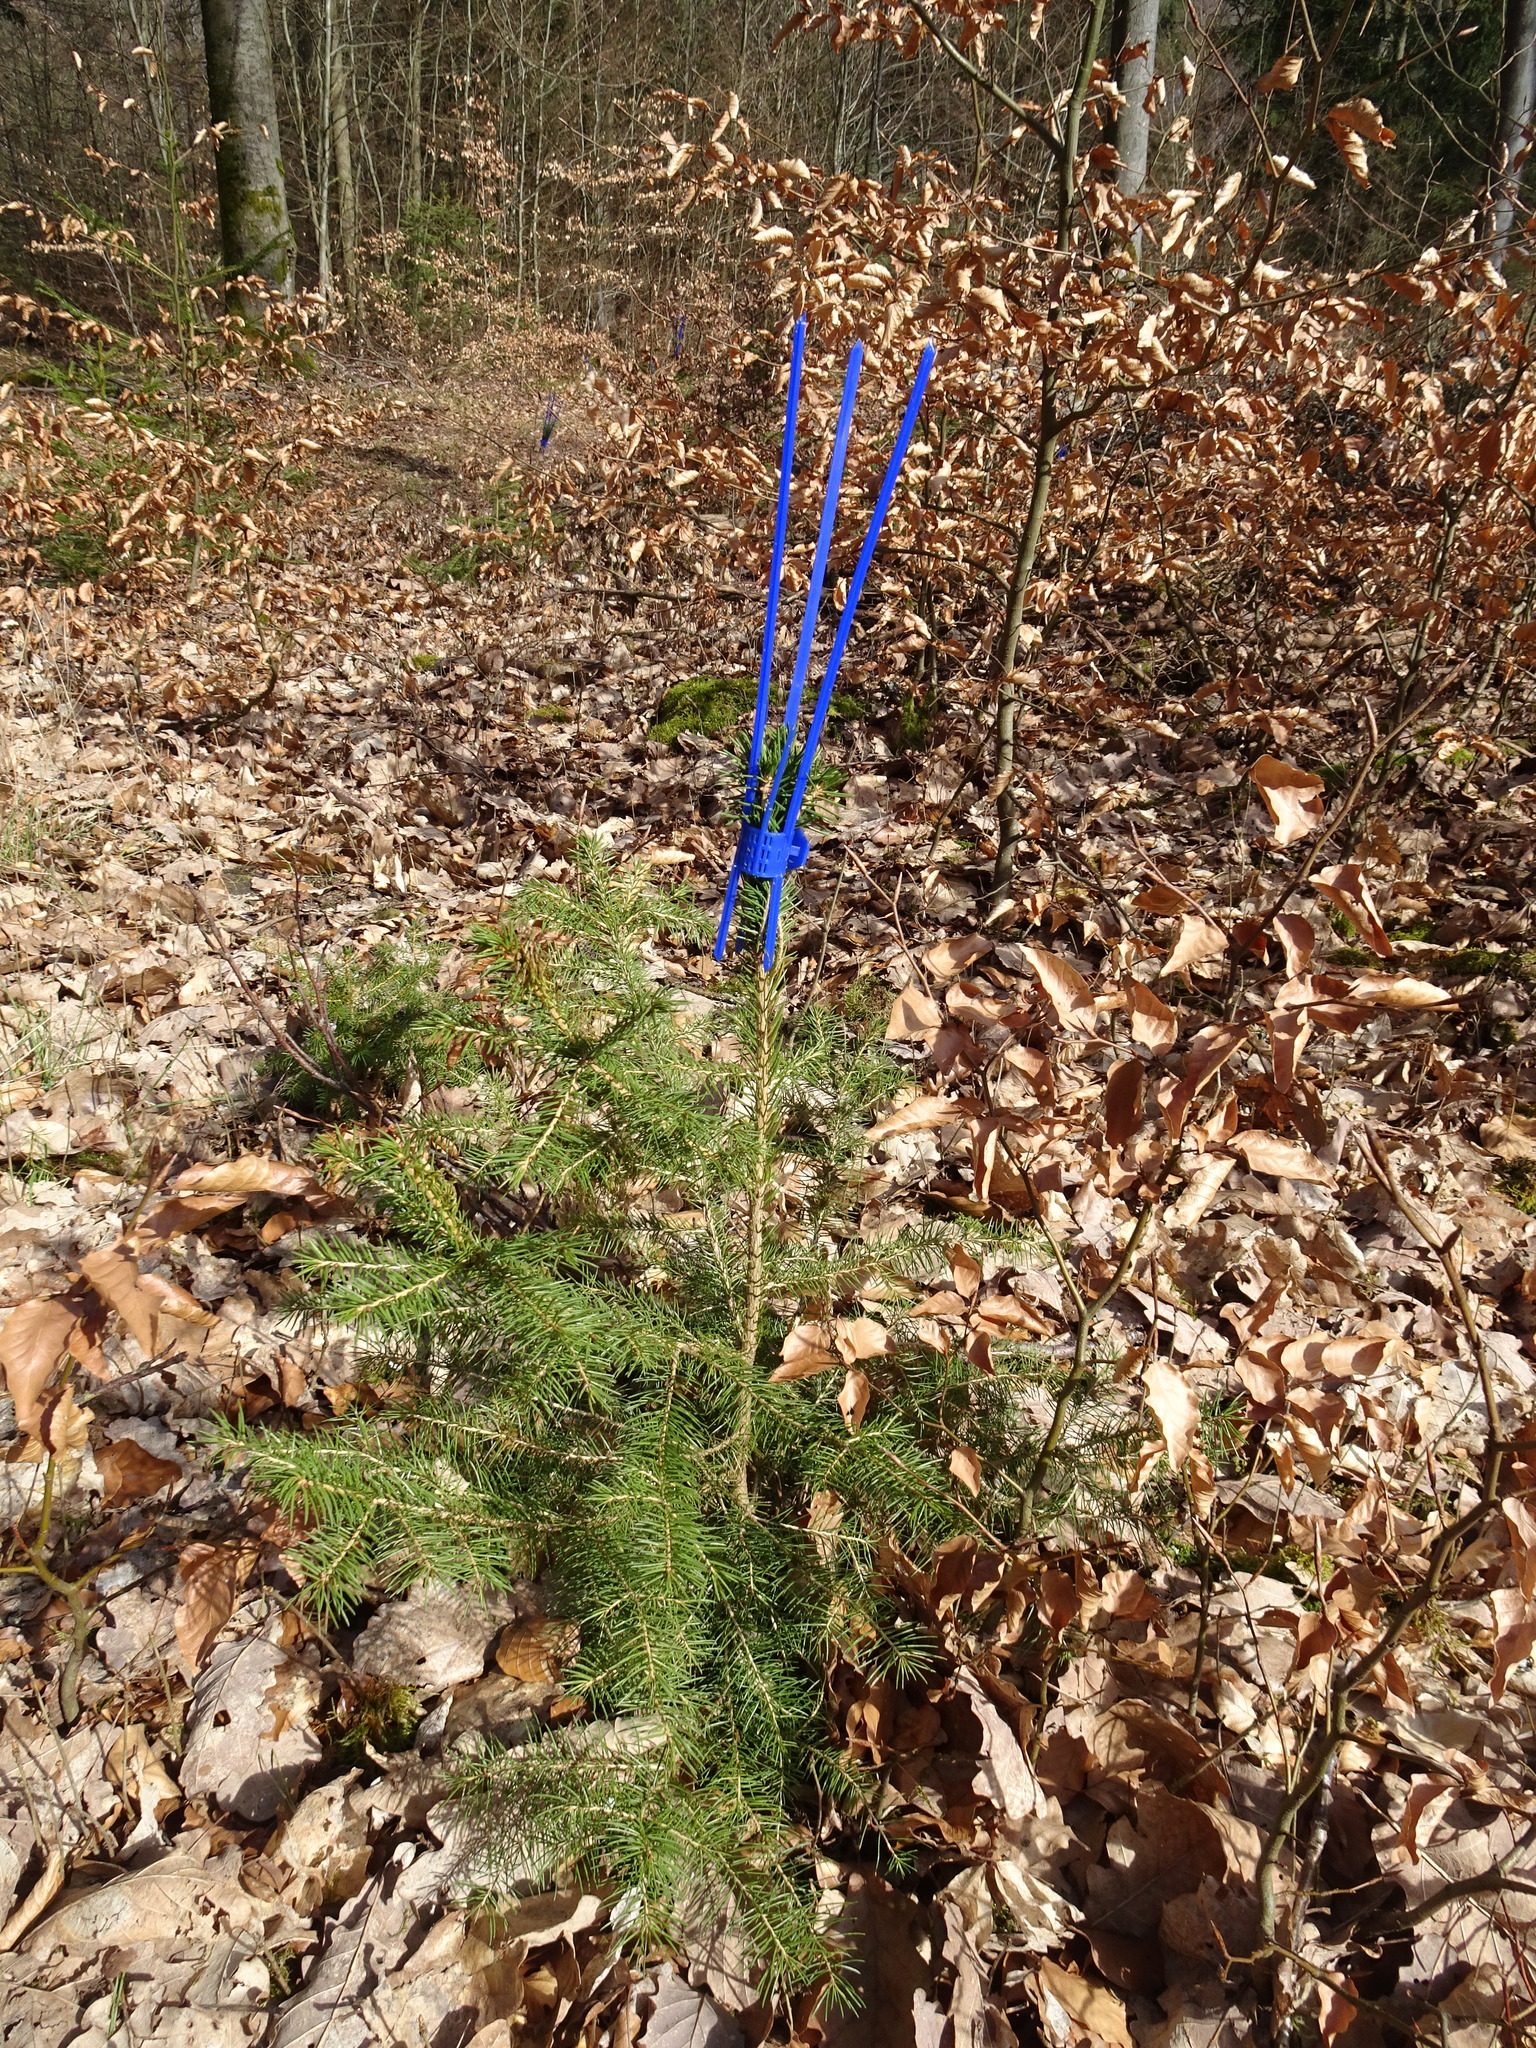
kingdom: Plantae
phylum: Tracheophyta
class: Pinopsida
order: Pinales
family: Pinaceae
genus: Picea
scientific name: Picea abies
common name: Norway spruce
